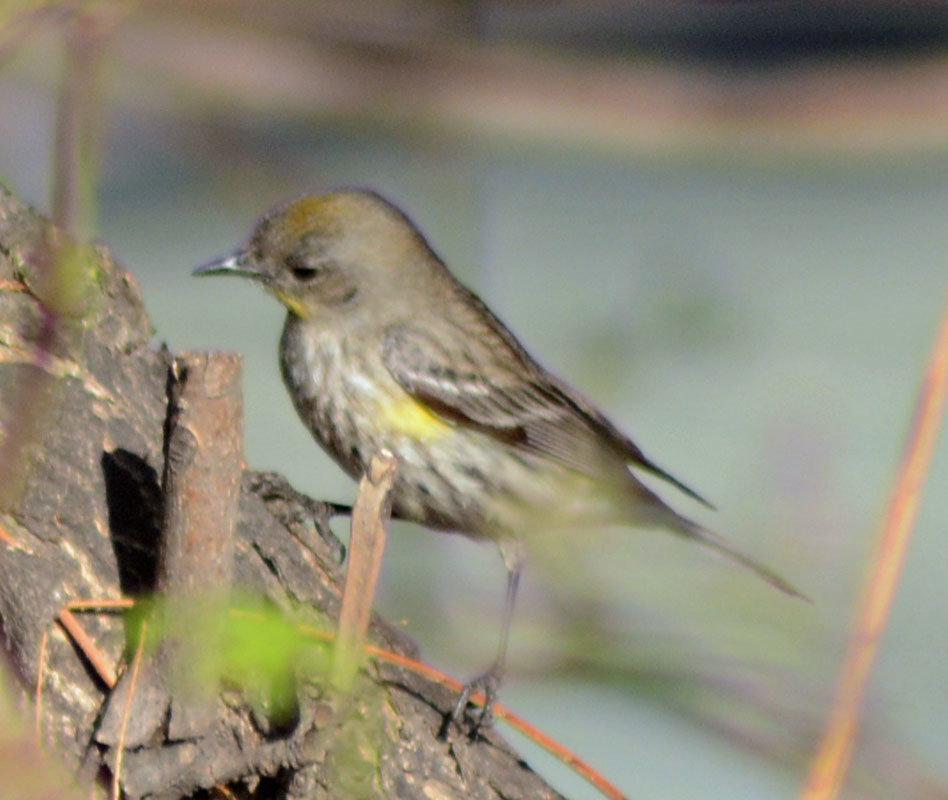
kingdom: Animalia
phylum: Chordata
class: Aves
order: Passeriformes
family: Parulidae
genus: Setophaga
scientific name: Setophaga coronata
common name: Myrtle warbler
